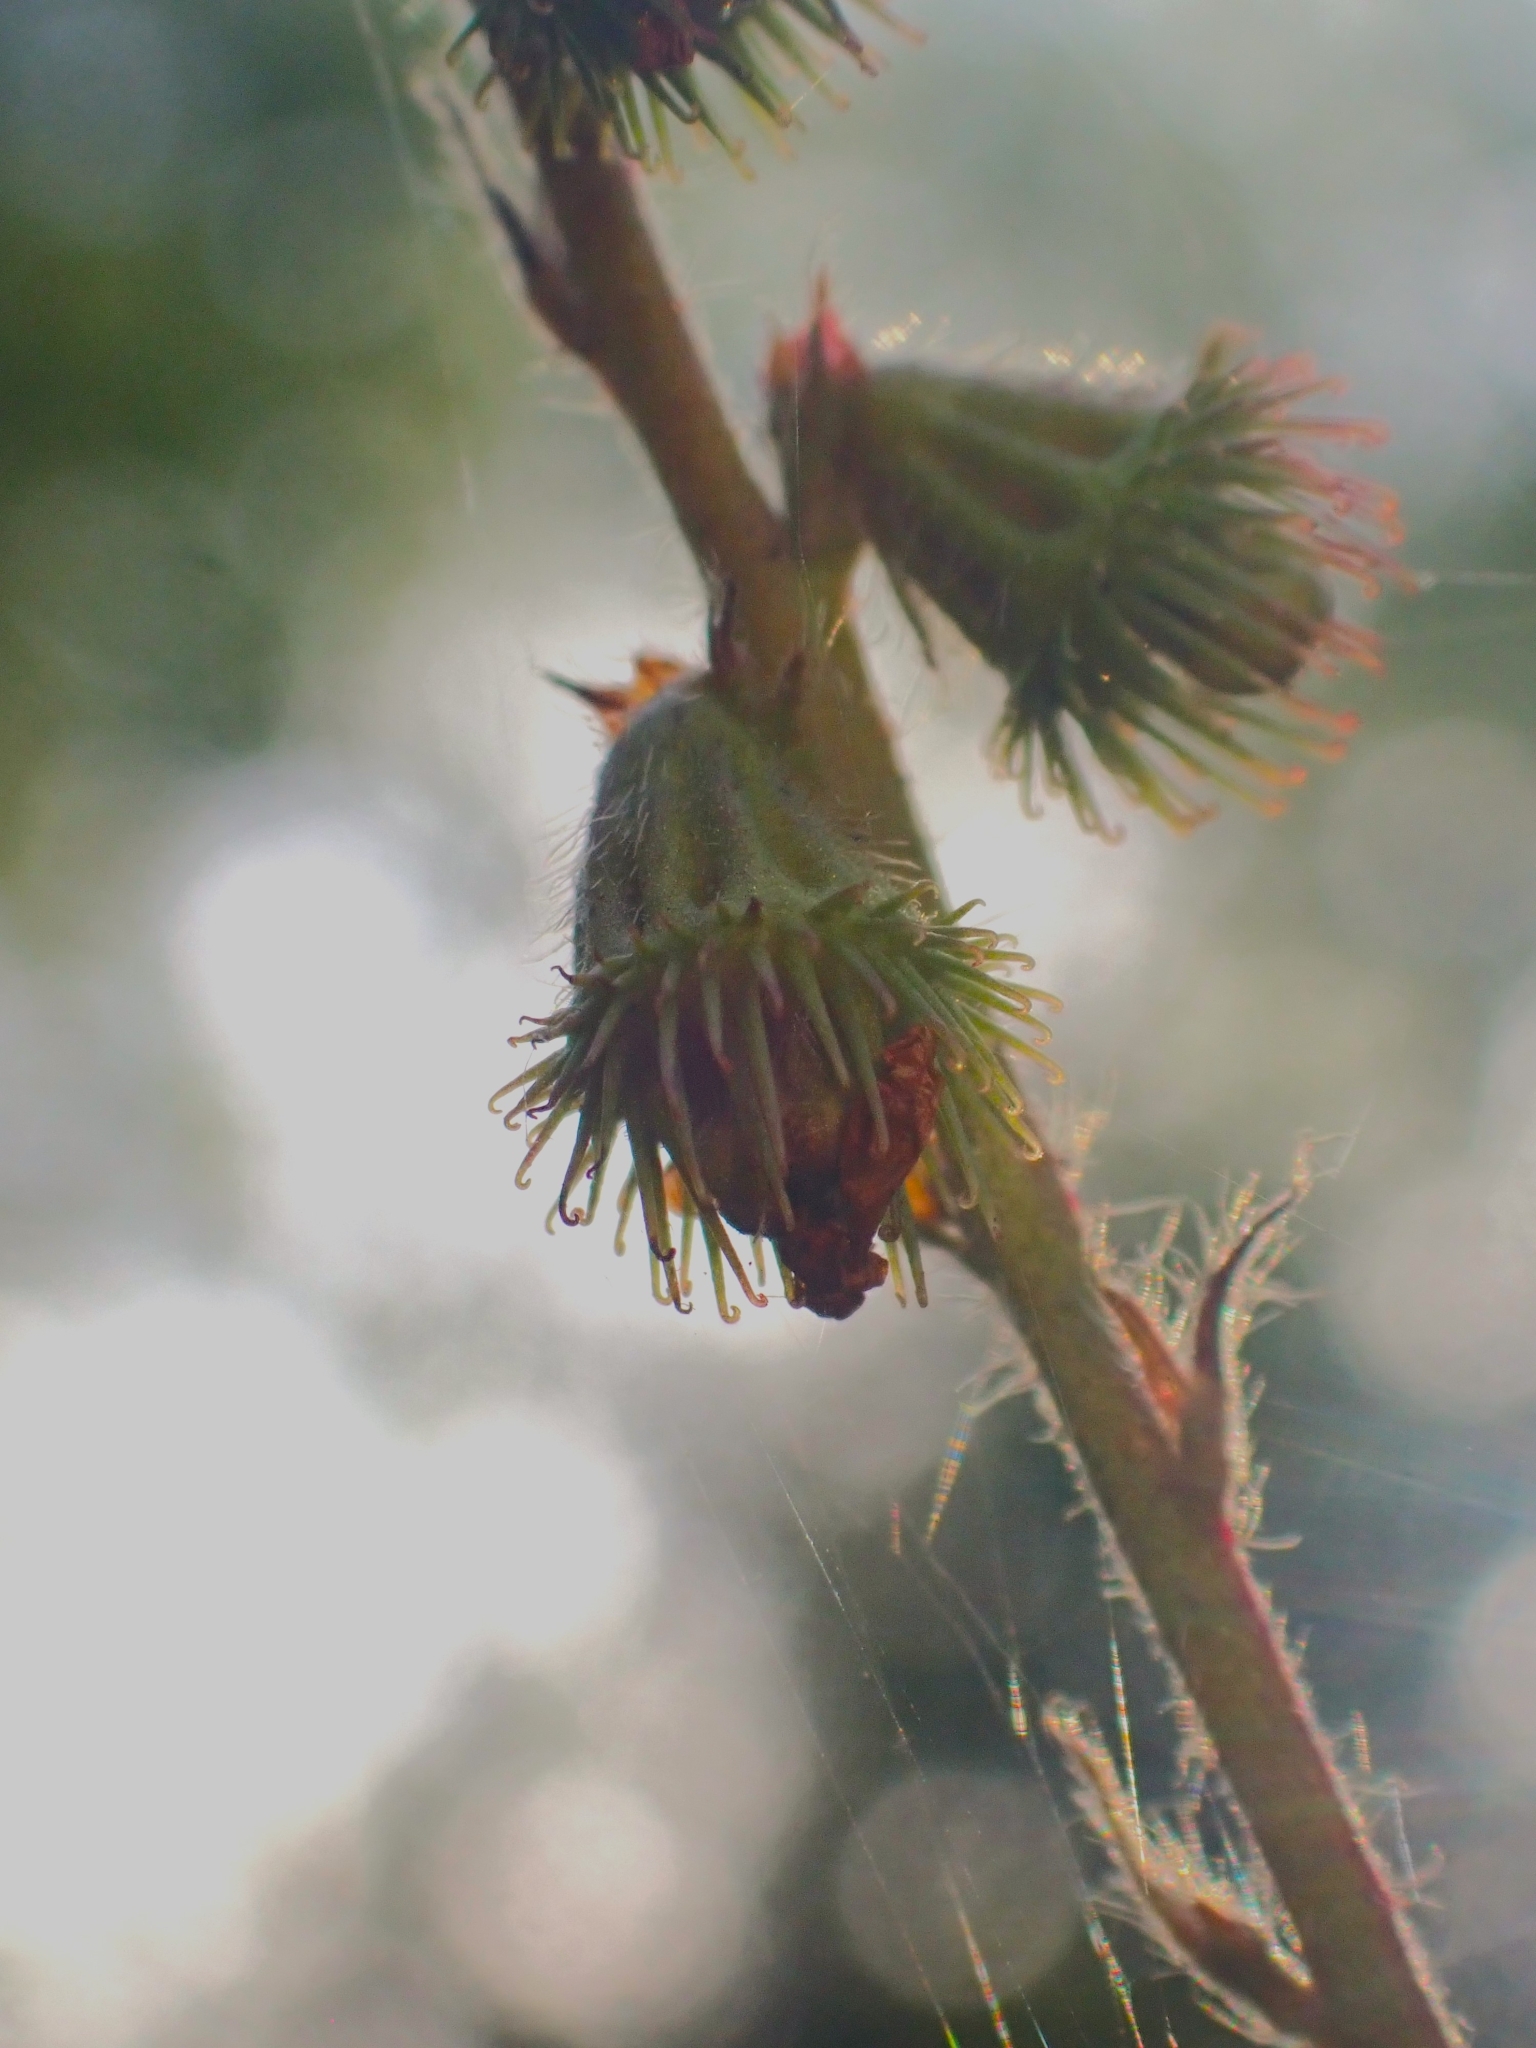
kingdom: Plantae
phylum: Tracheophyta
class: Magnoliopsida
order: Rosales
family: Rosaceae
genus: Agrimonia
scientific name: Agrimonia eupatoria
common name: Agrimony
